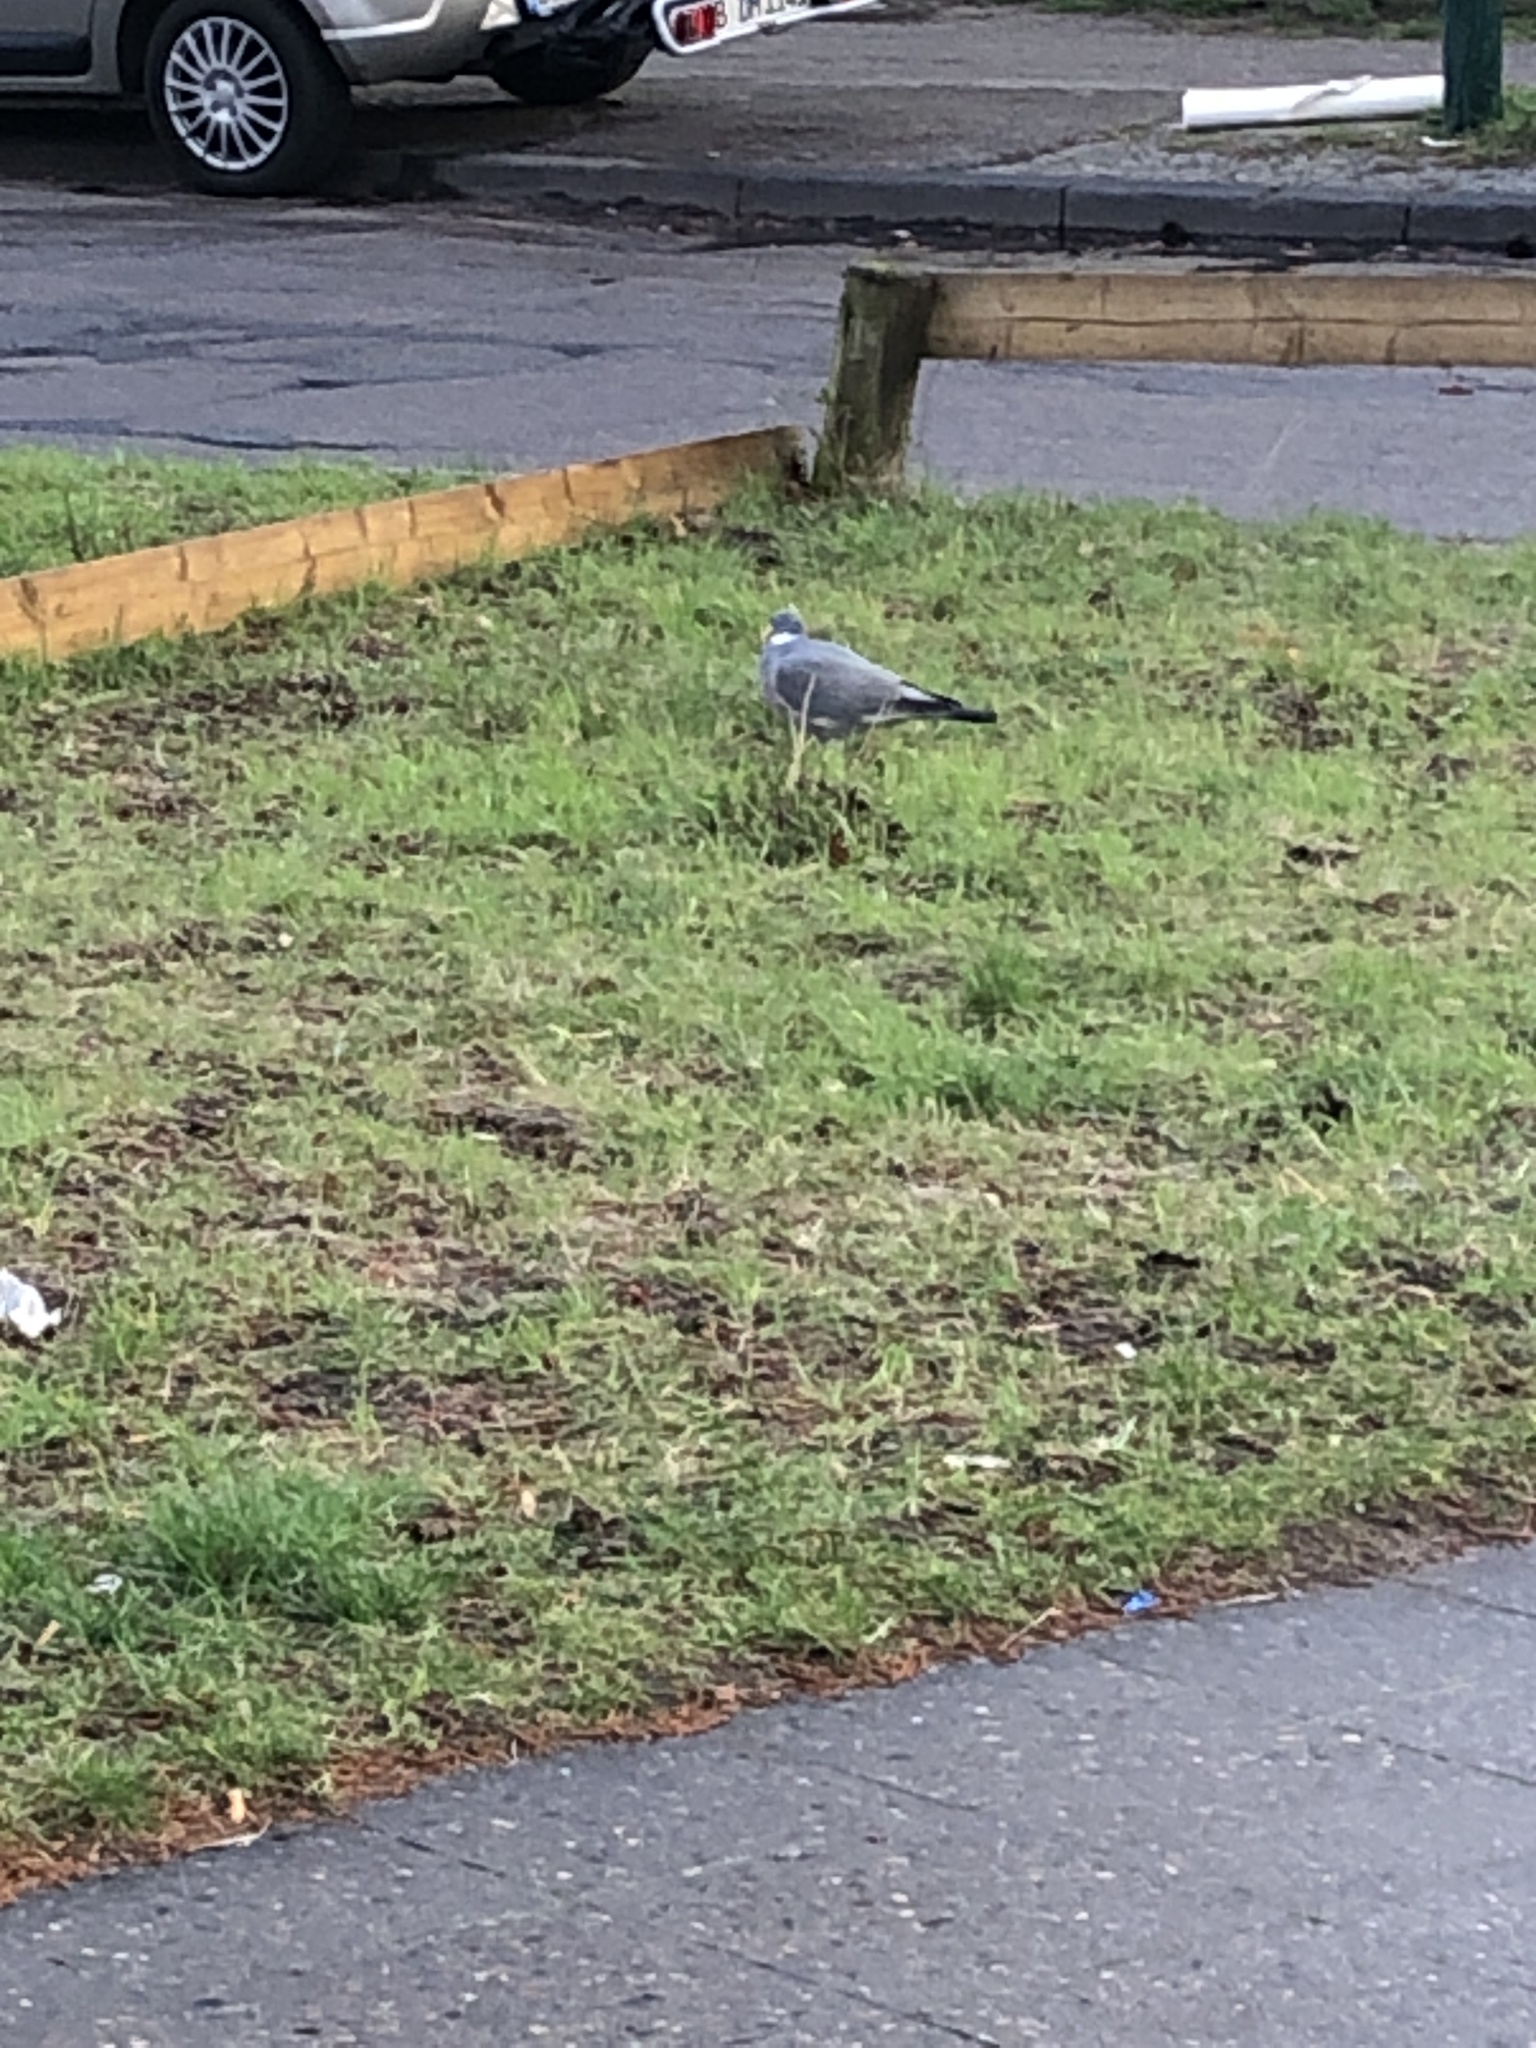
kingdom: Animalia
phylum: Chordata
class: Aves
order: Columbiformes
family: Columbidae
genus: Columba
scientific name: Columba palumbus
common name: Common wood pigeon
